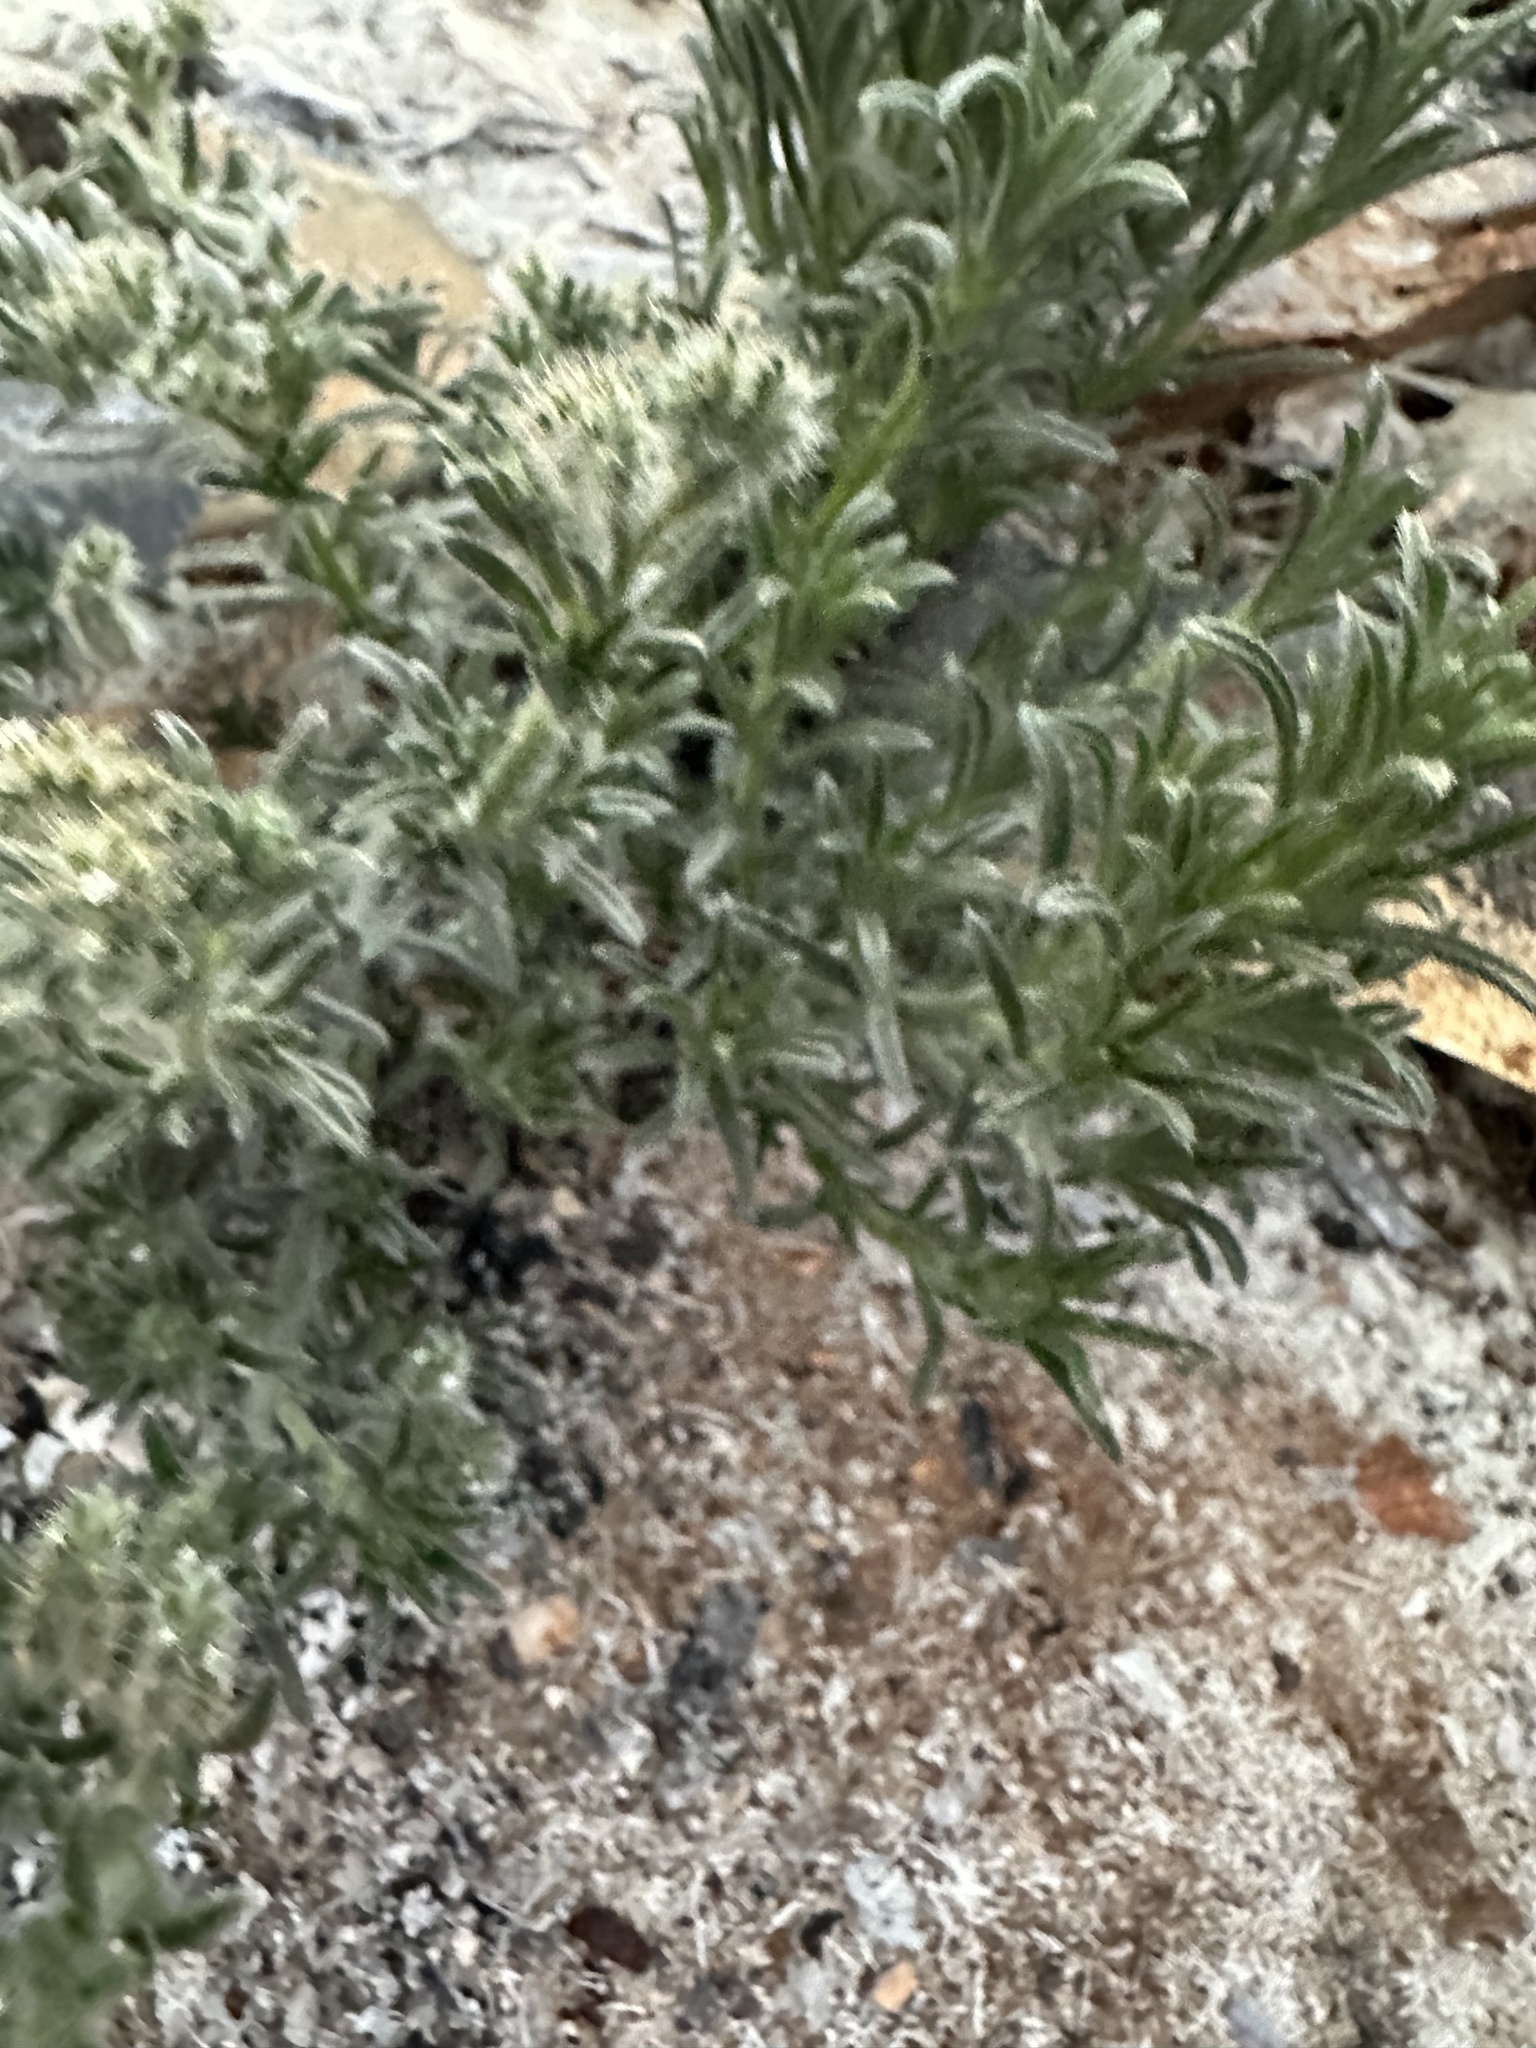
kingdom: Plantae
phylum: Tracheophyta
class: Magnoliopsida
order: Boraginales
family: Boraginaceae
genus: Johnstonella
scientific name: Johnstonella angustifolia
